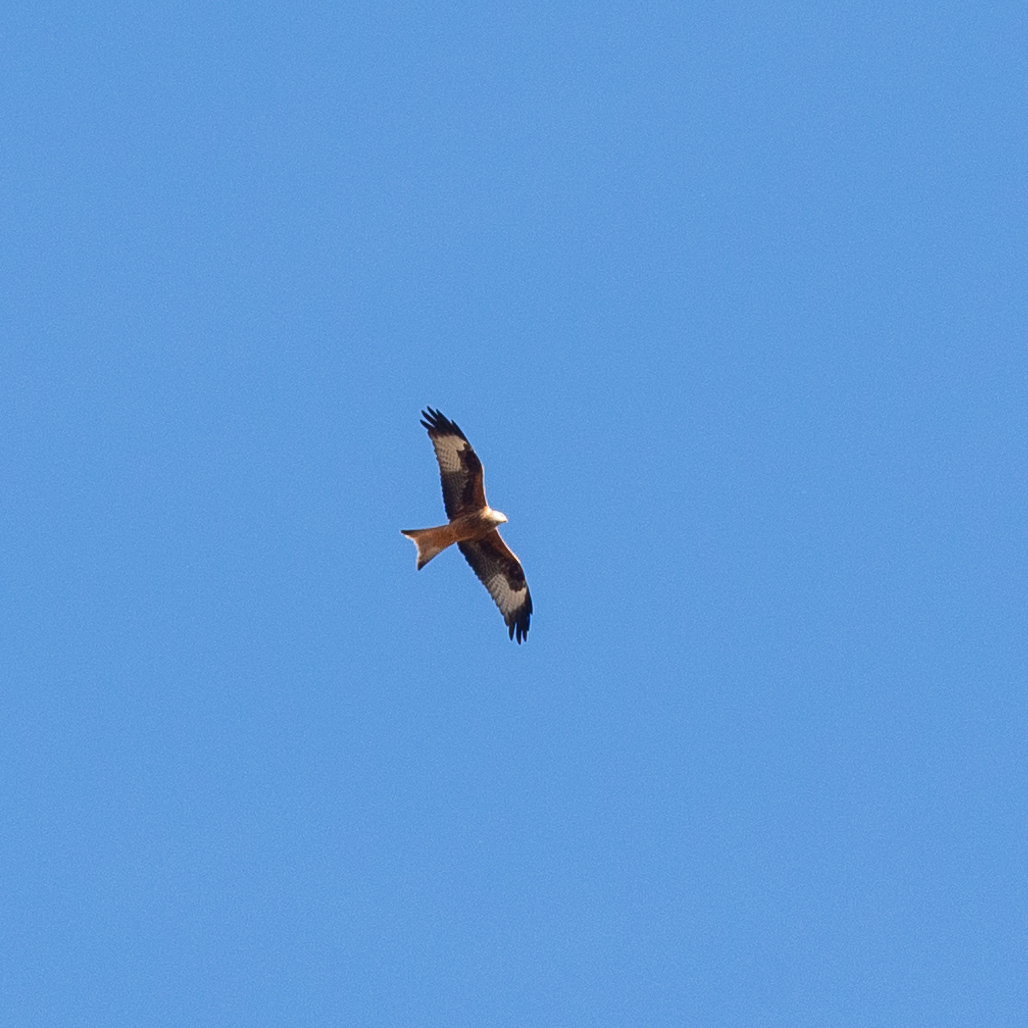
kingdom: Animalia
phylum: Chordata
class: Aves
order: Accipitriformes
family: Accipitridae
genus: Milvus
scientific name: Milvus milvus
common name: Red kite
